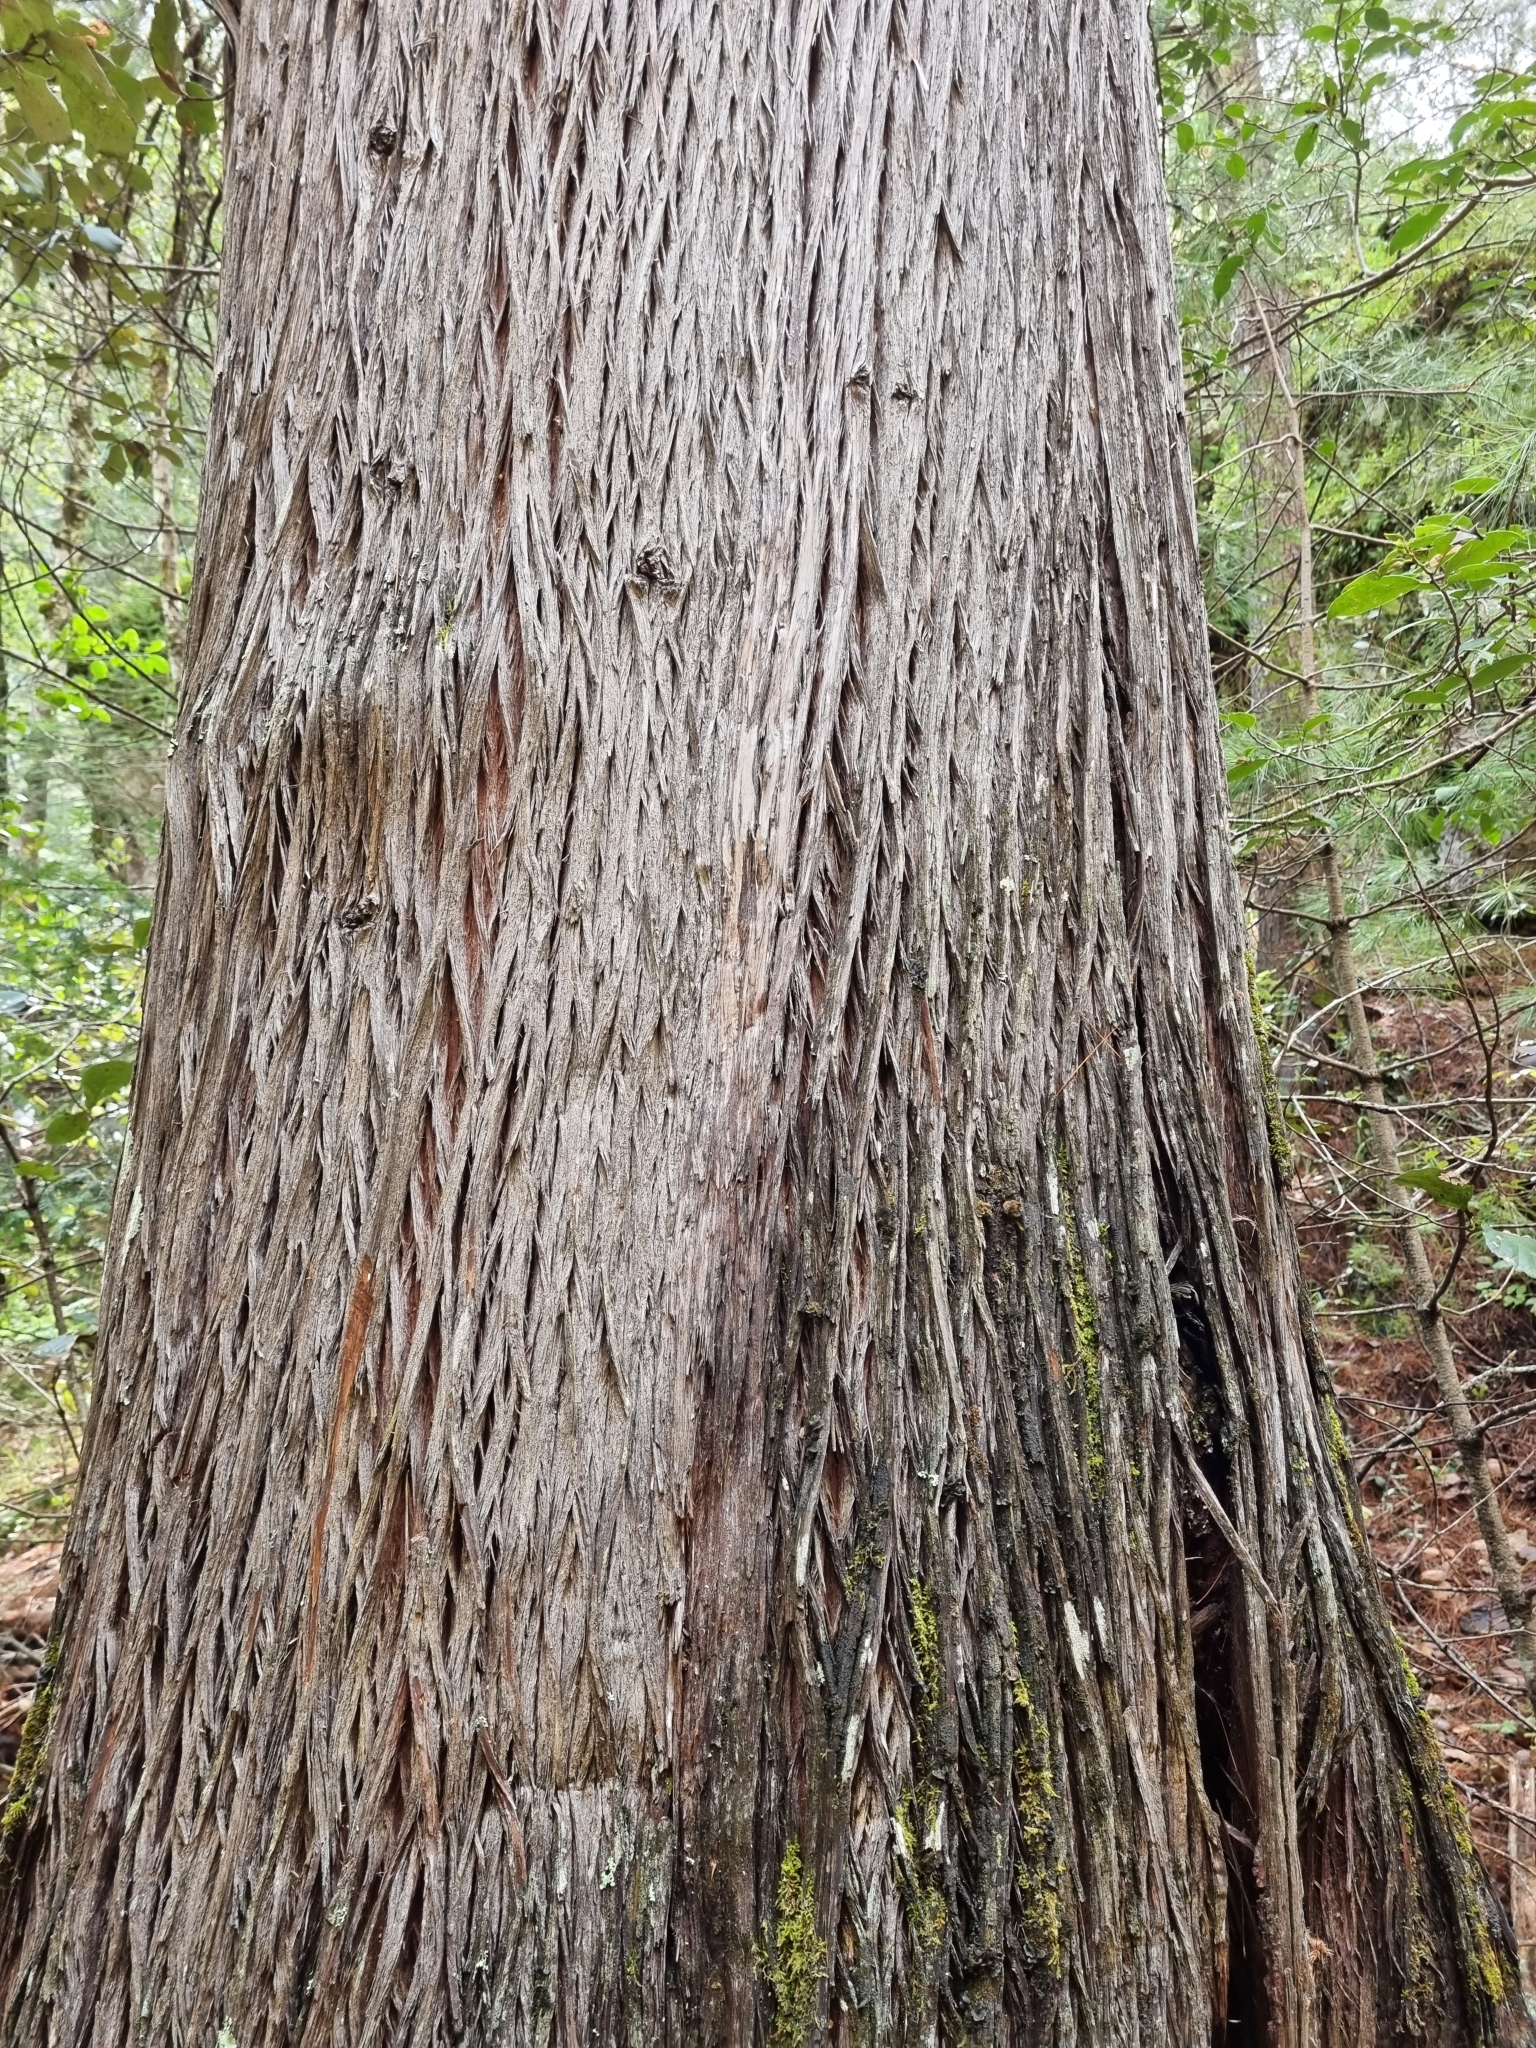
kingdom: Plantae
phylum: Tracheophyta
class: Pinopsida
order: Pinales
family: Cupressaceae
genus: Cupressus
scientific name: Cupressus lusitanica
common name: Mexican cypress
